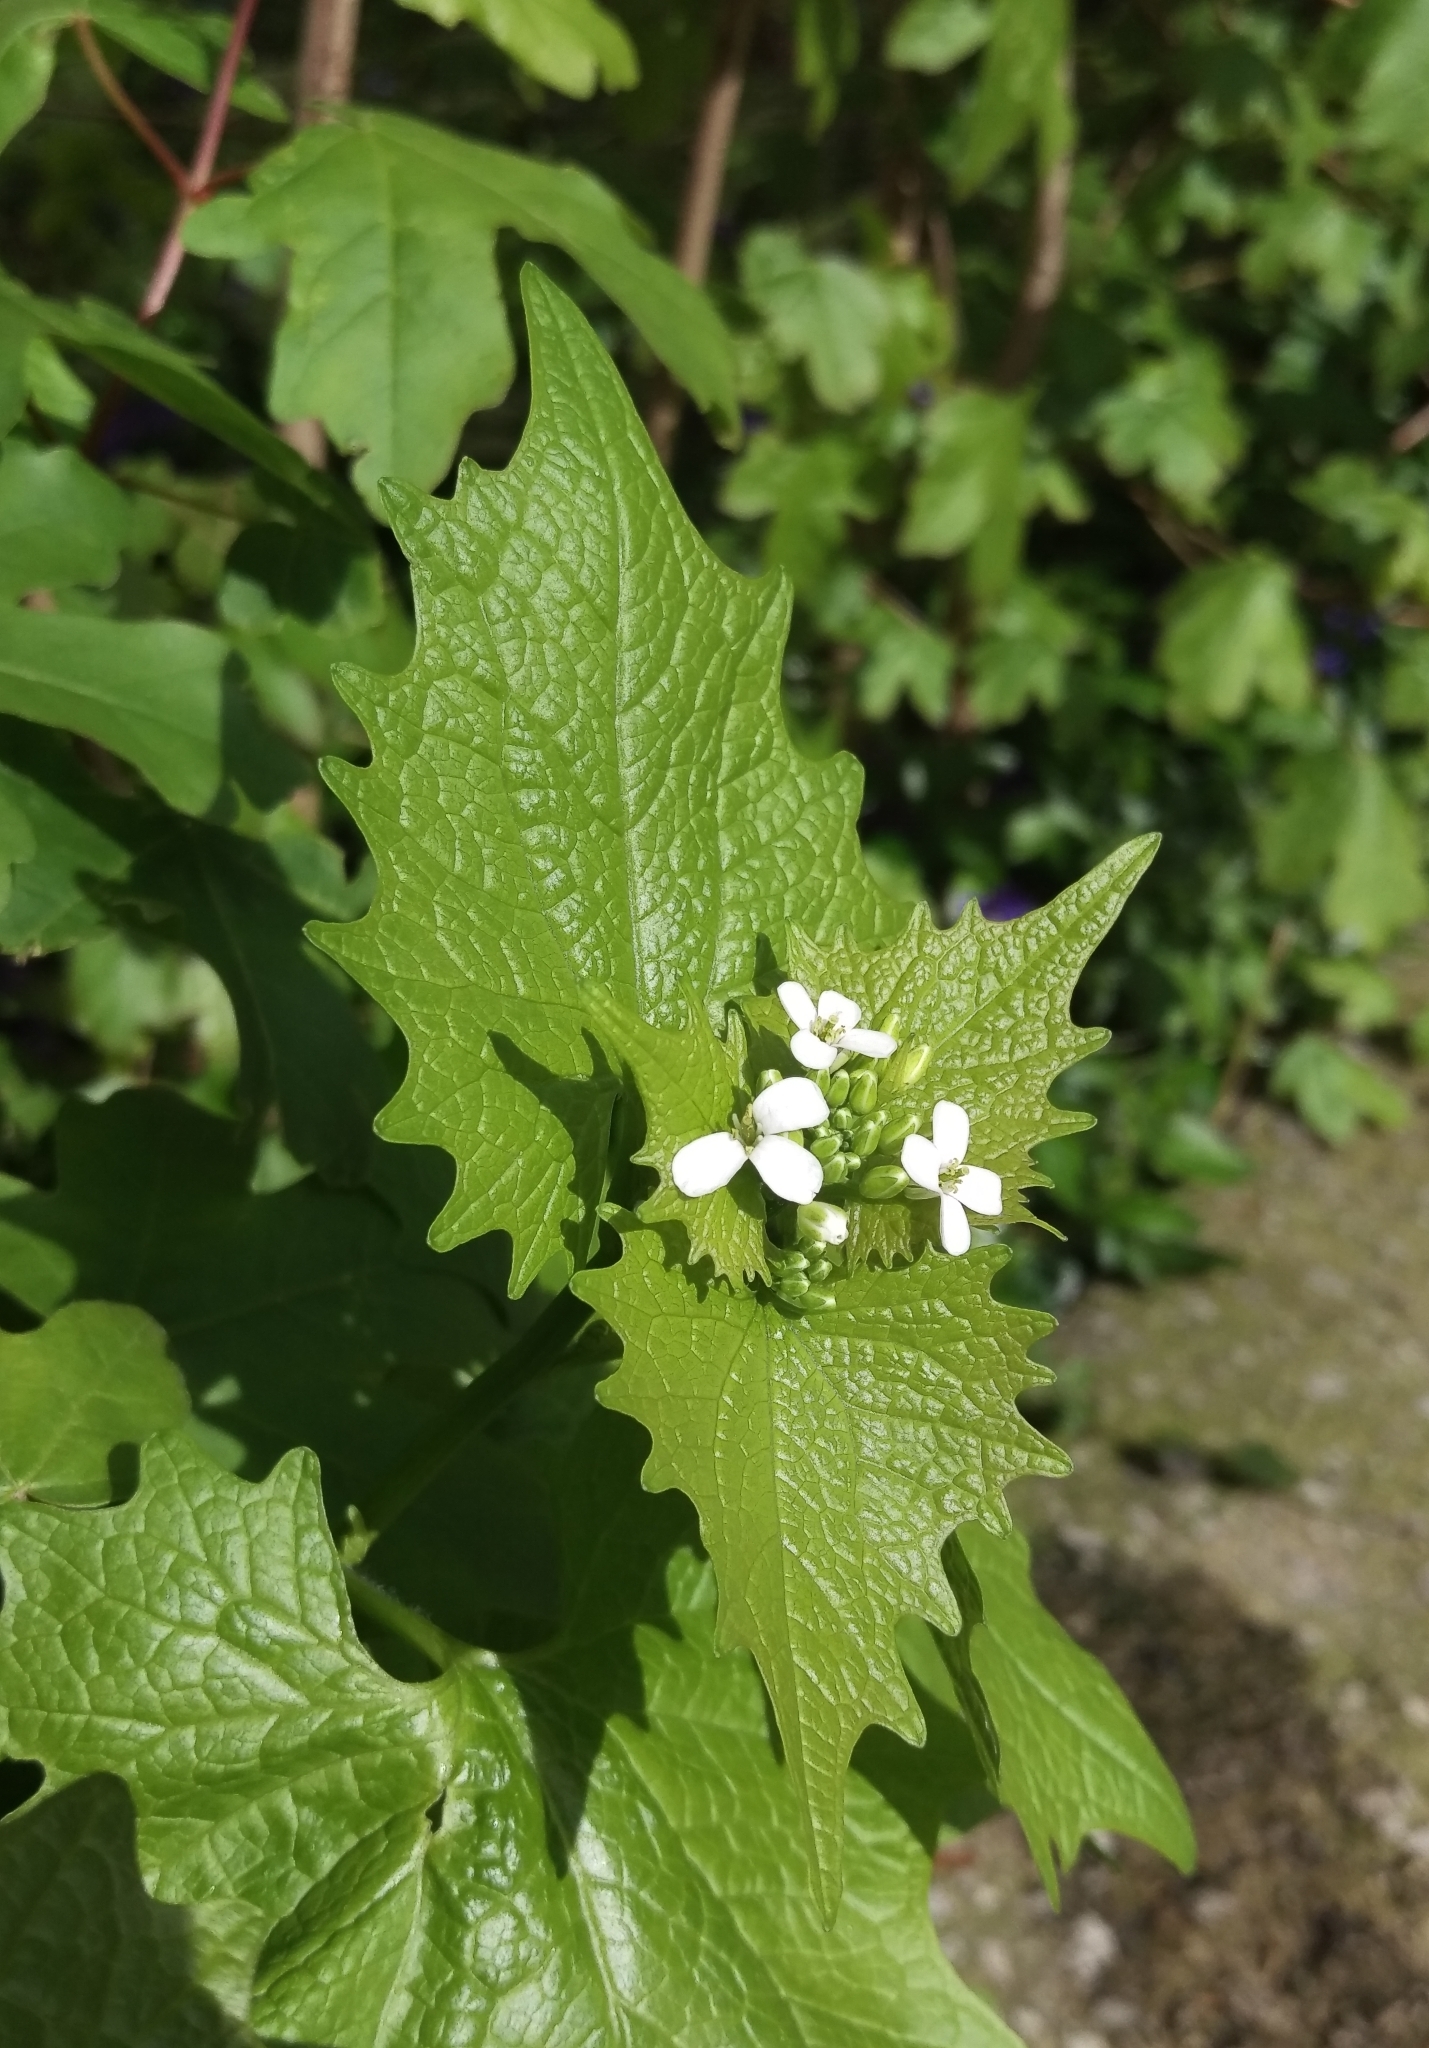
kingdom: Plantae
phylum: Tracheophyta
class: Magnoliopsida
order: Brassicales
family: Brassicaceae
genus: Alliaria
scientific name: Alliaria petiolata
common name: Garlic mustard
